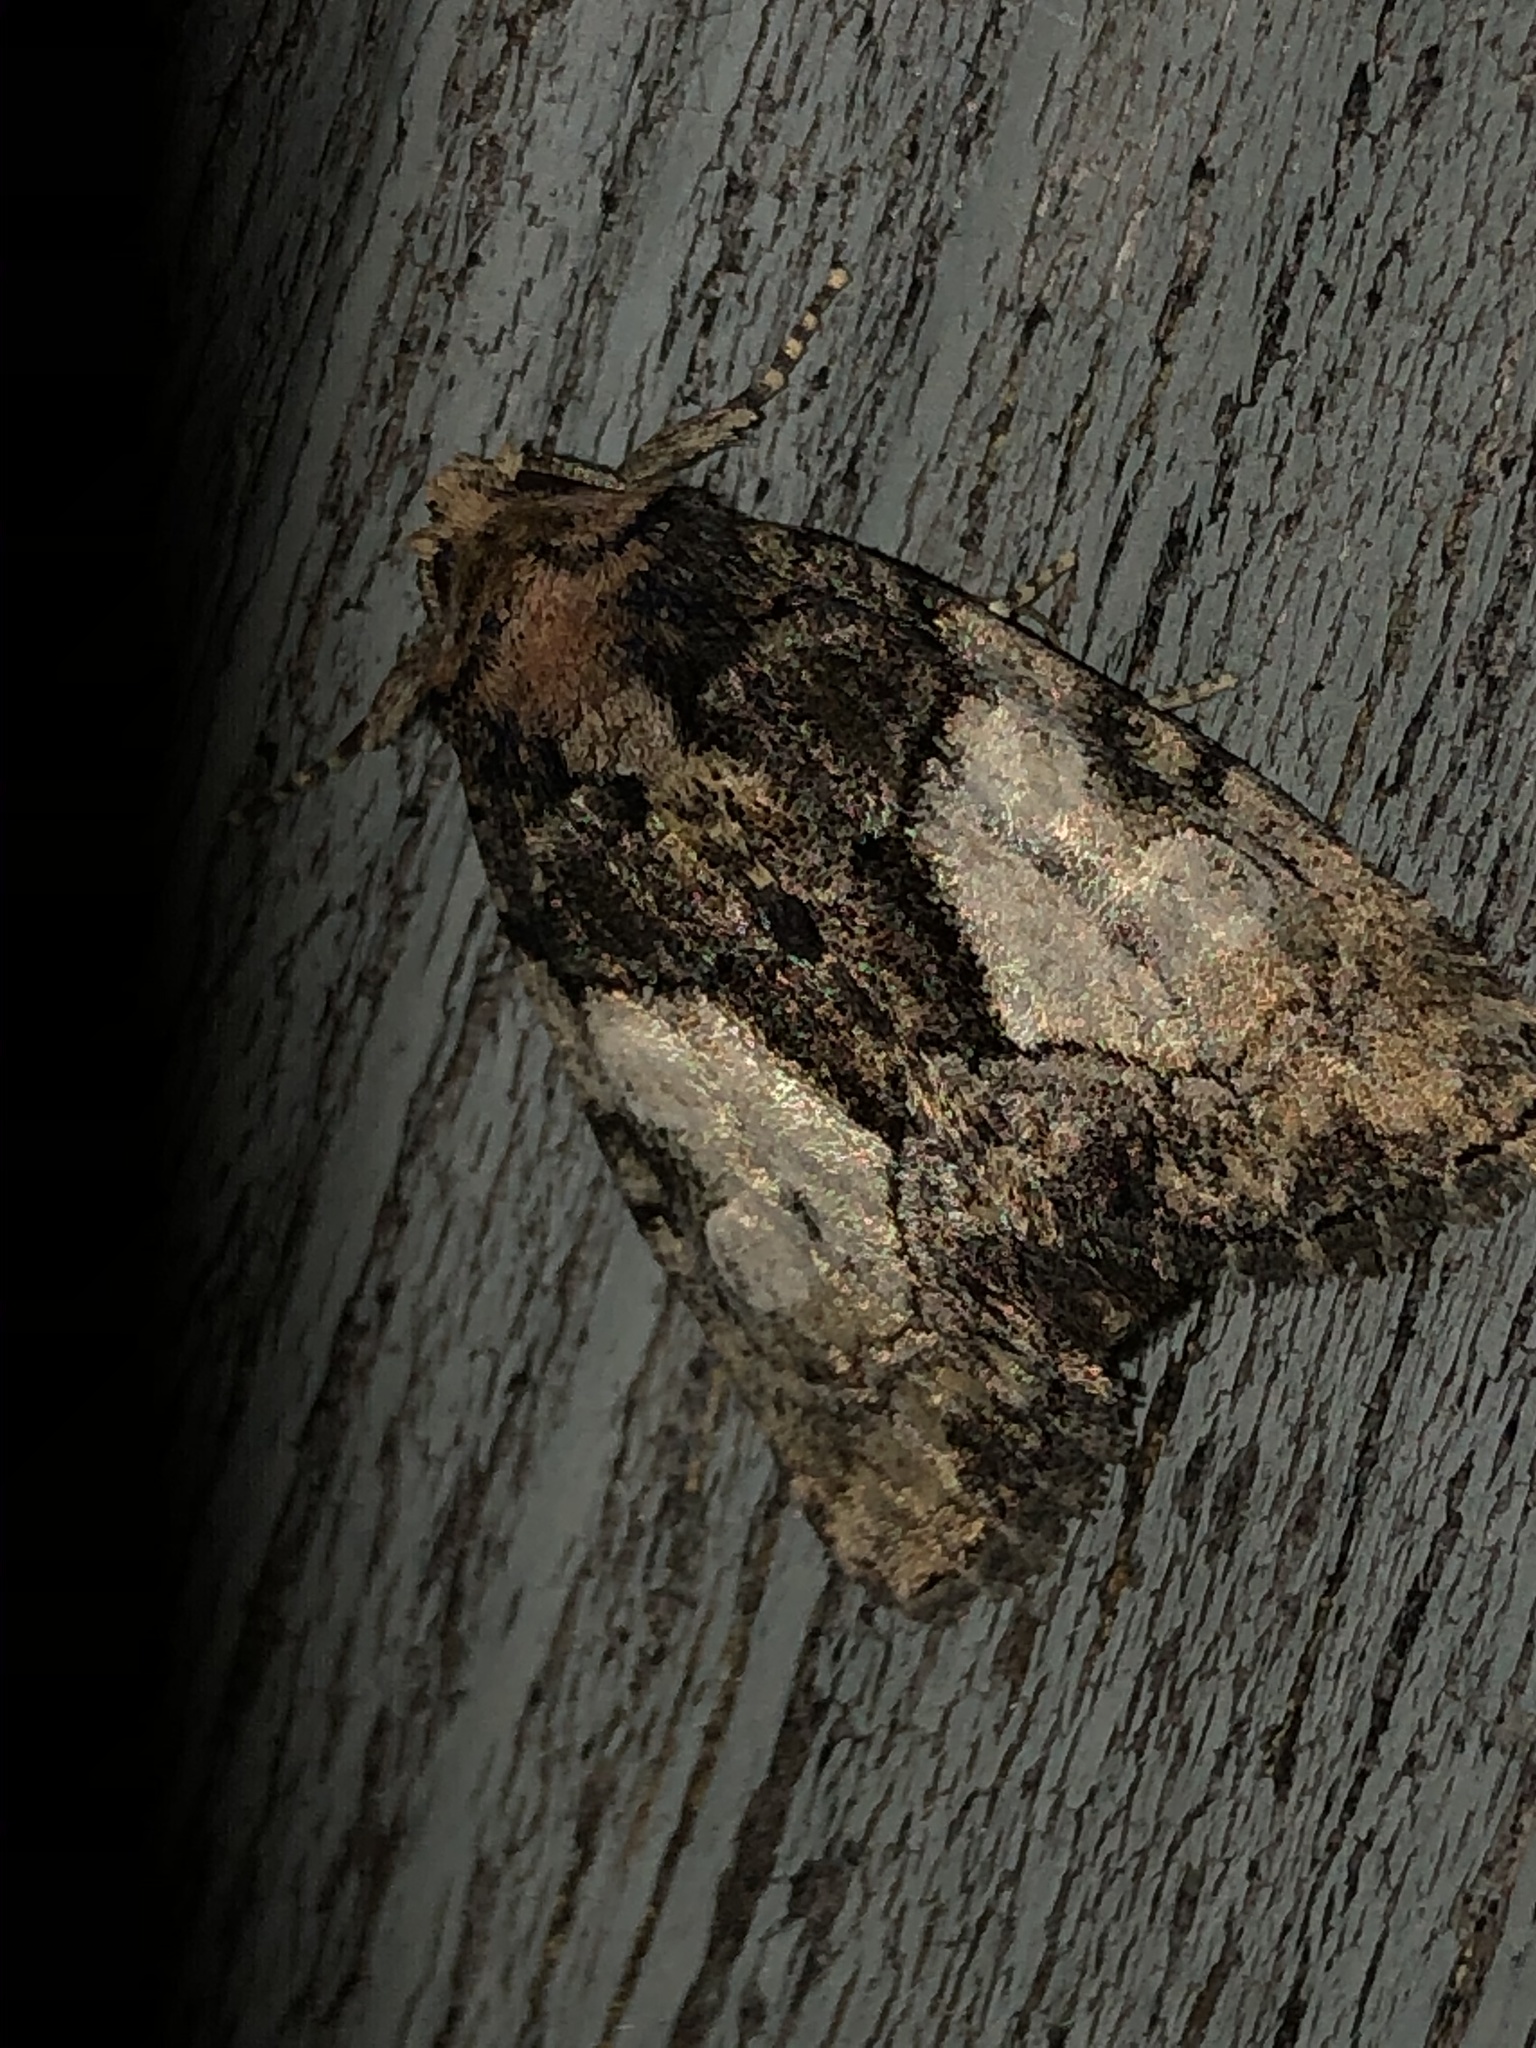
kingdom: Animalia
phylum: Arthropoda
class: Insecta
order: Lepidoptera
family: Noctuidae
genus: Chytonix
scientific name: Chytonix palliatricula
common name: Cloaked marvel
